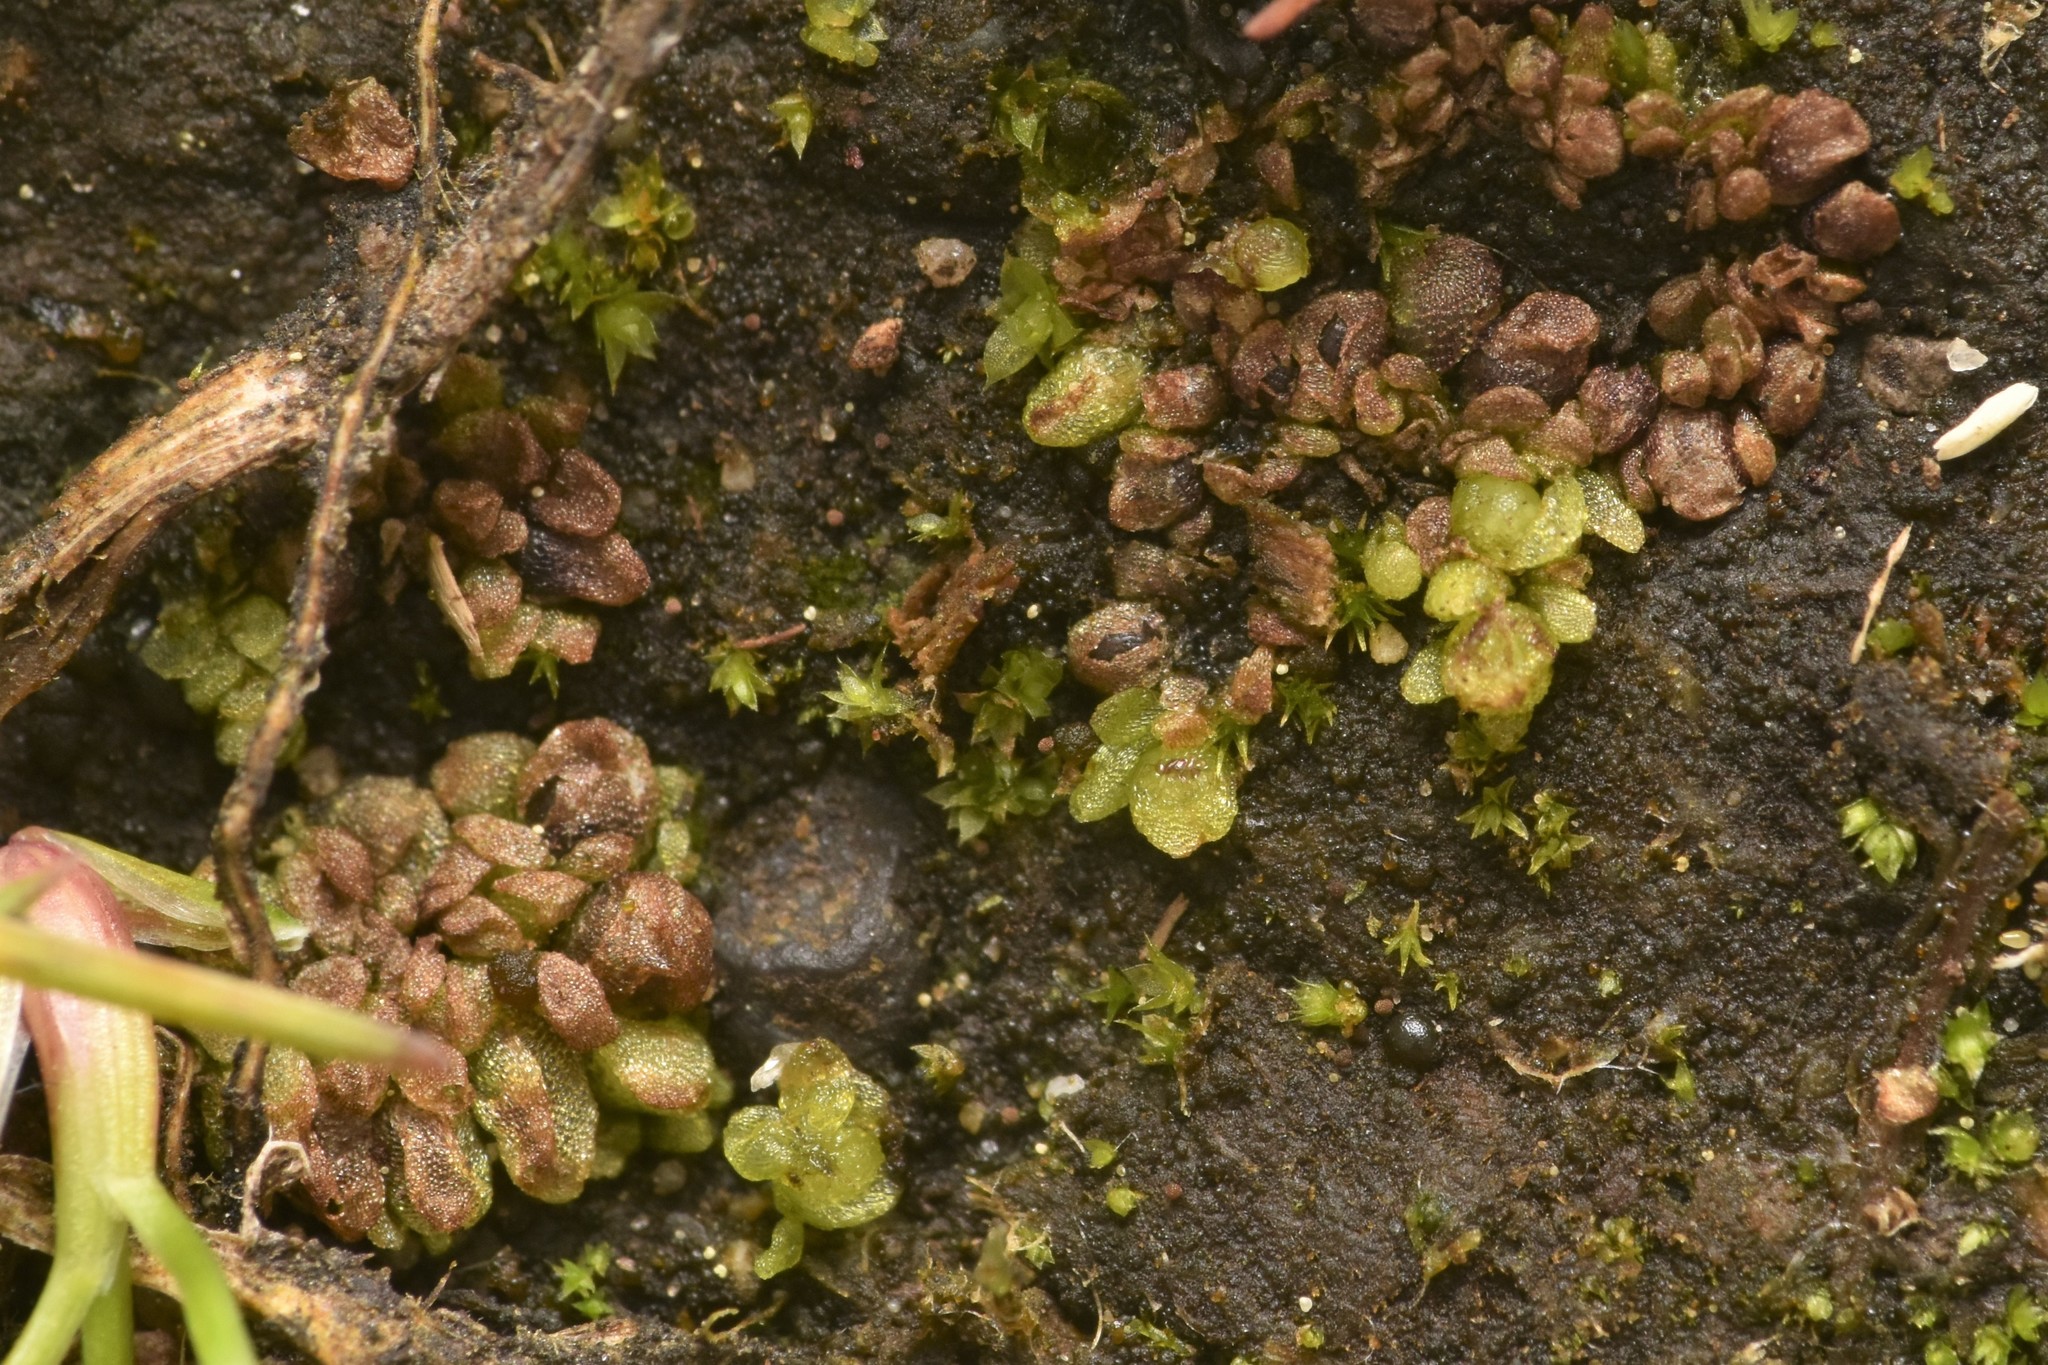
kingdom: Plantae
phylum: Marchantiophyta
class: Marchantiopsida
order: Sphaerocarpales
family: Sphaerocarpaceae
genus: Sphaerocarpos
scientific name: Sphaerocarpos texanus
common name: Texas balloonwort
